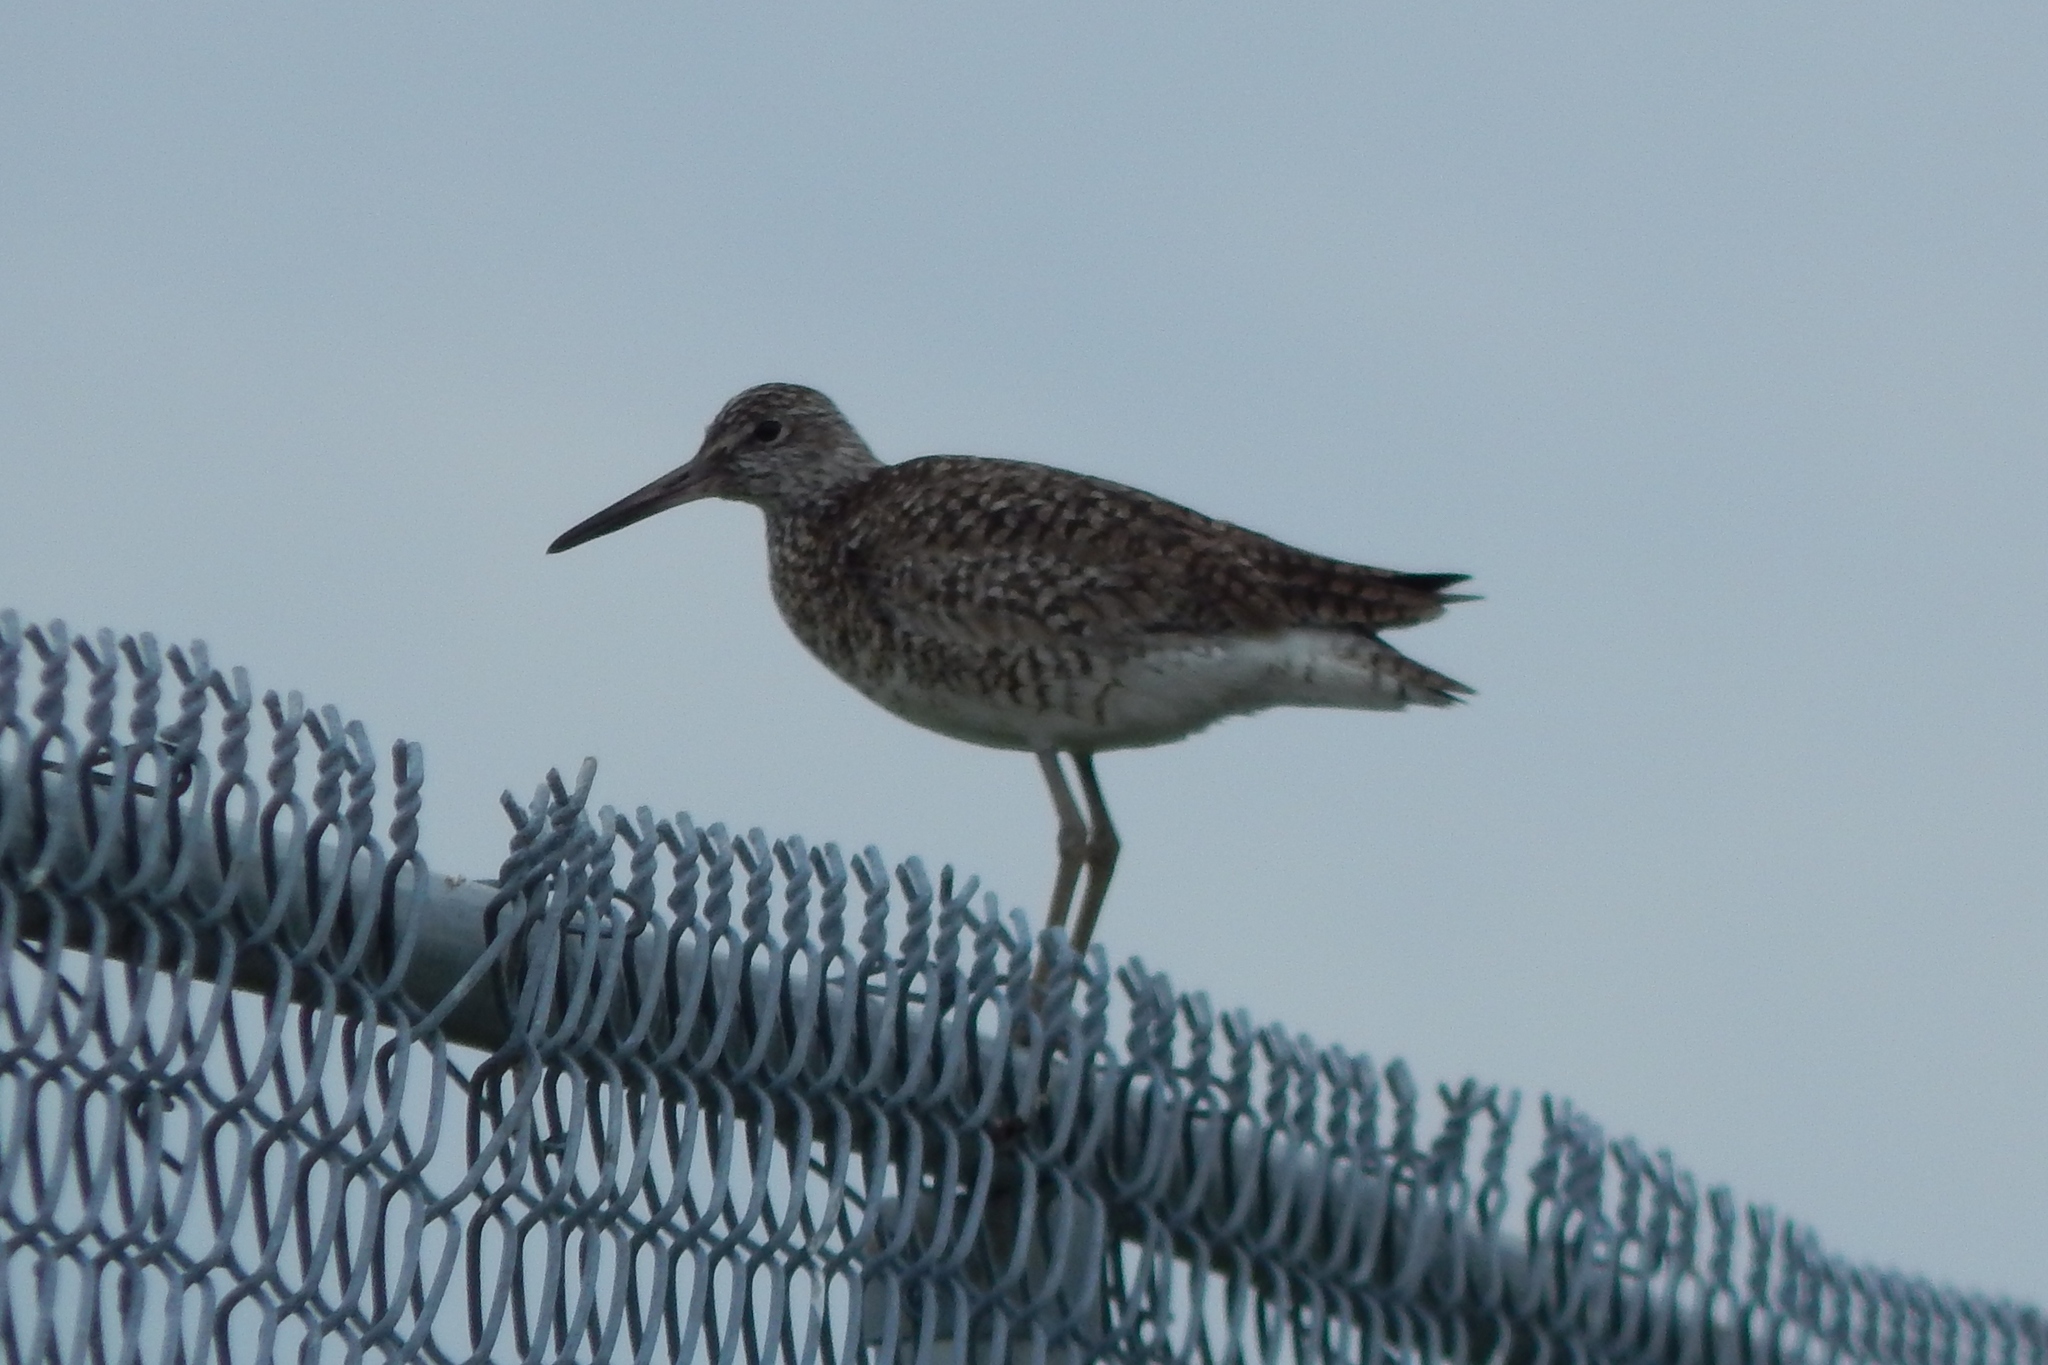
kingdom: Animalia
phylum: Chordata
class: Aves
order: Charadriiformes
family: Scolopacidae
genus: Tringa
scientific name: Tringa semipalmata
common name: Willet
